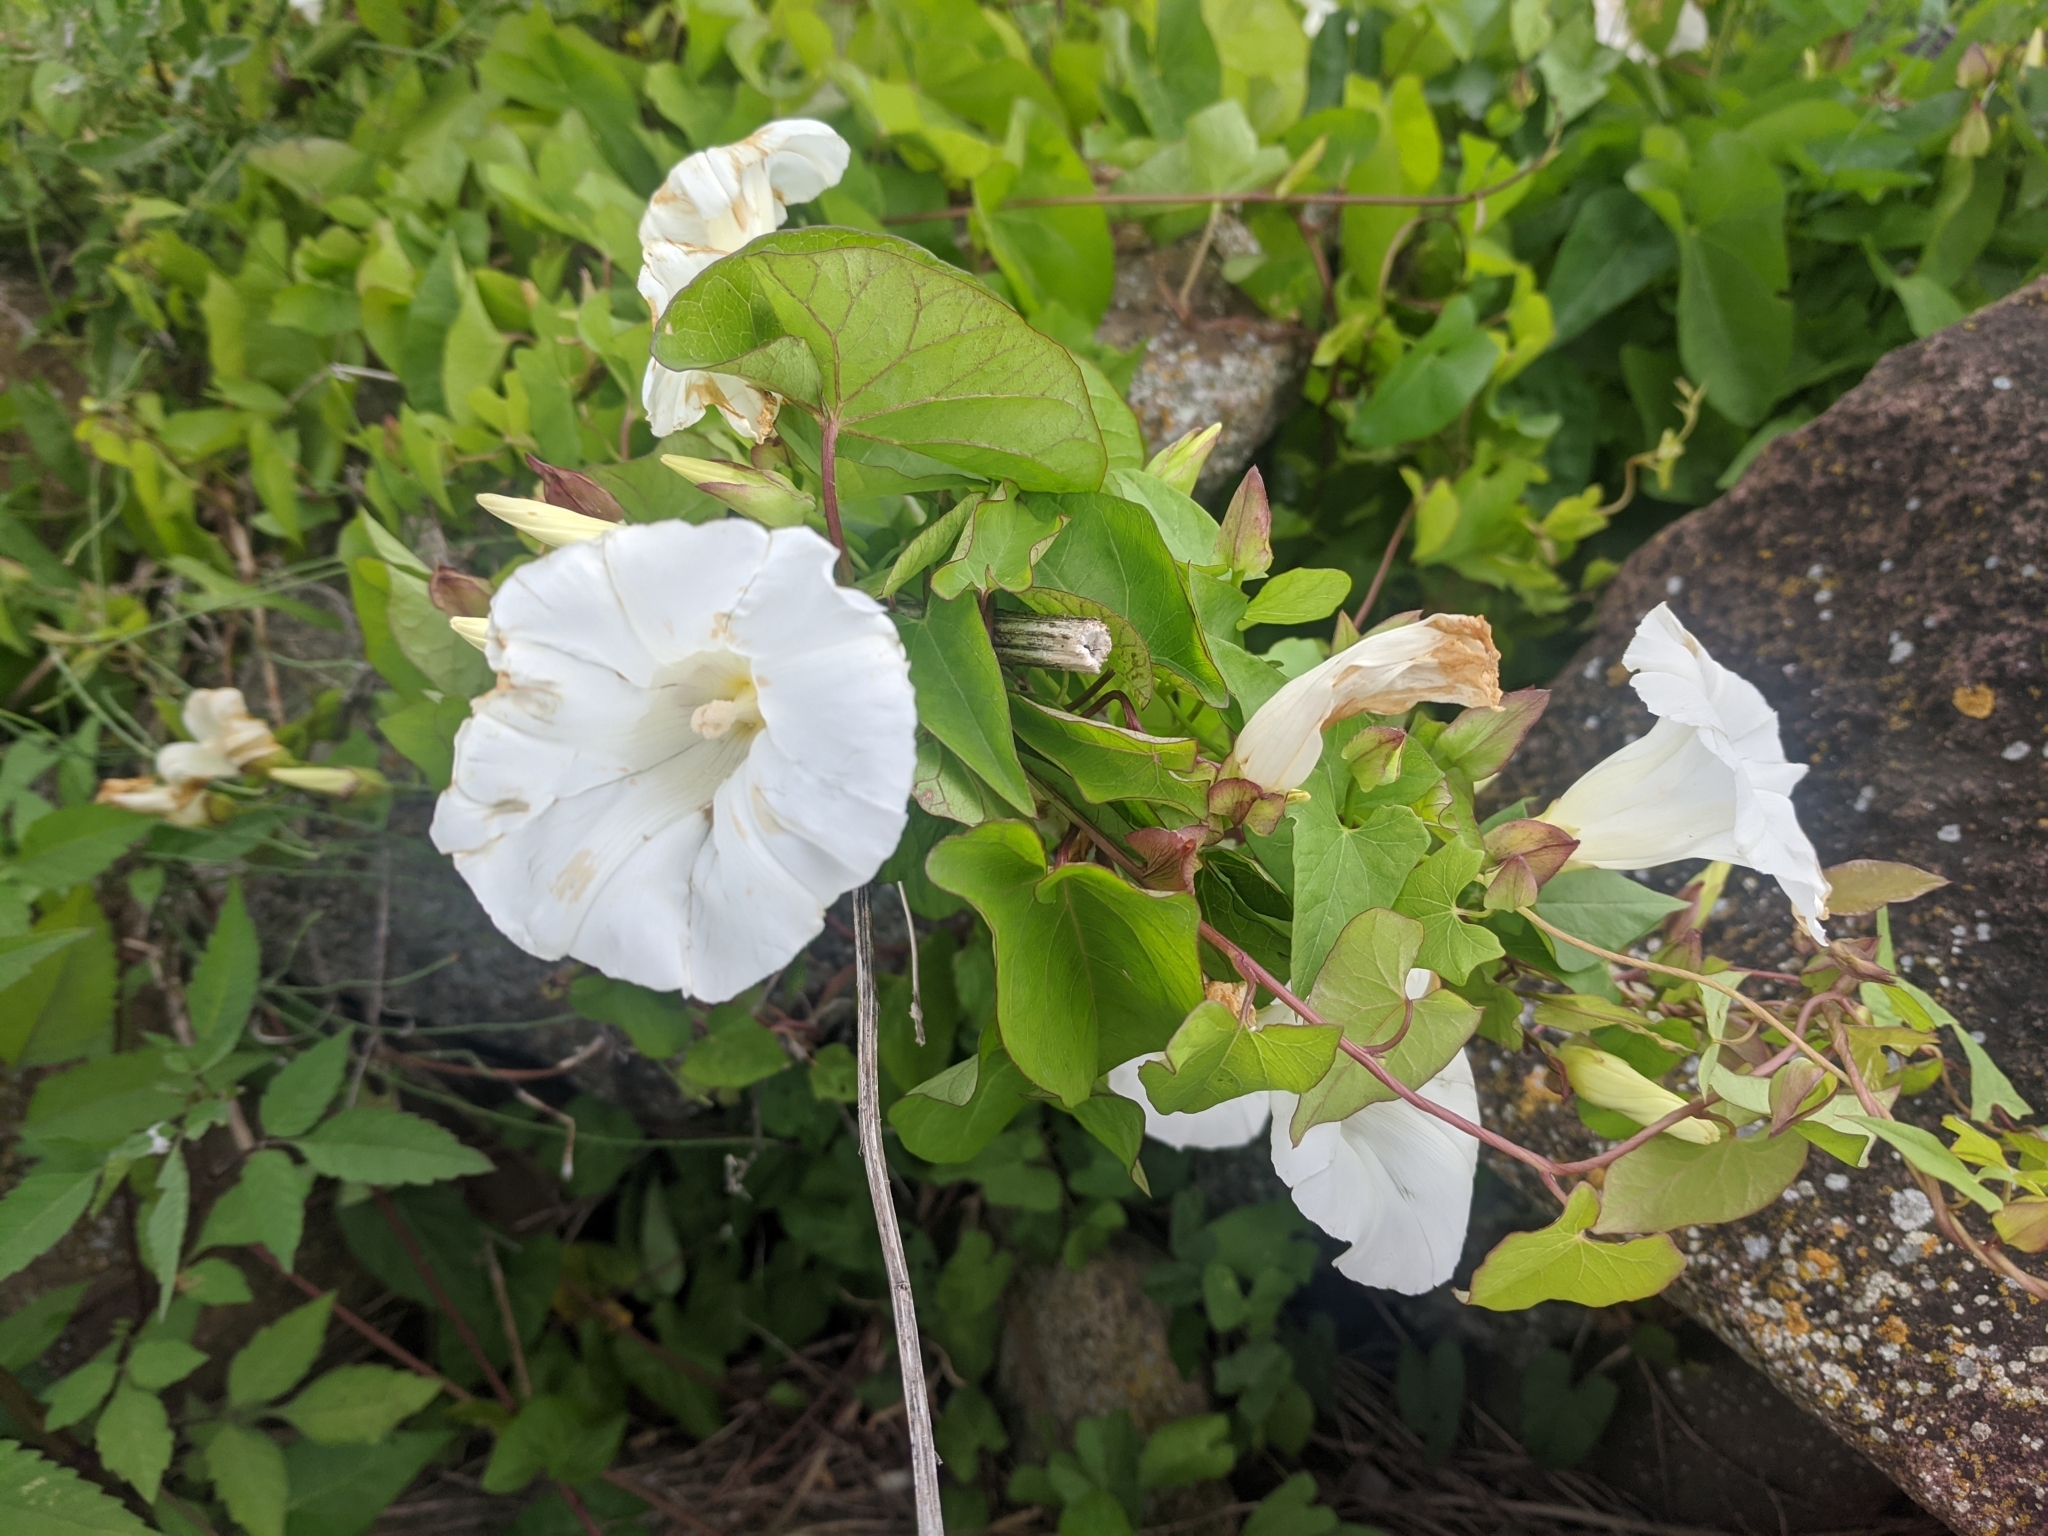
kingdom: Plantae
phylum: Tracheophyta
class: Magnoliopsida
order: Solanales
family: Convolvulaceae
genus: Calystegia
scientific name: Calystegia sepium
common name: Hedge bindweed
